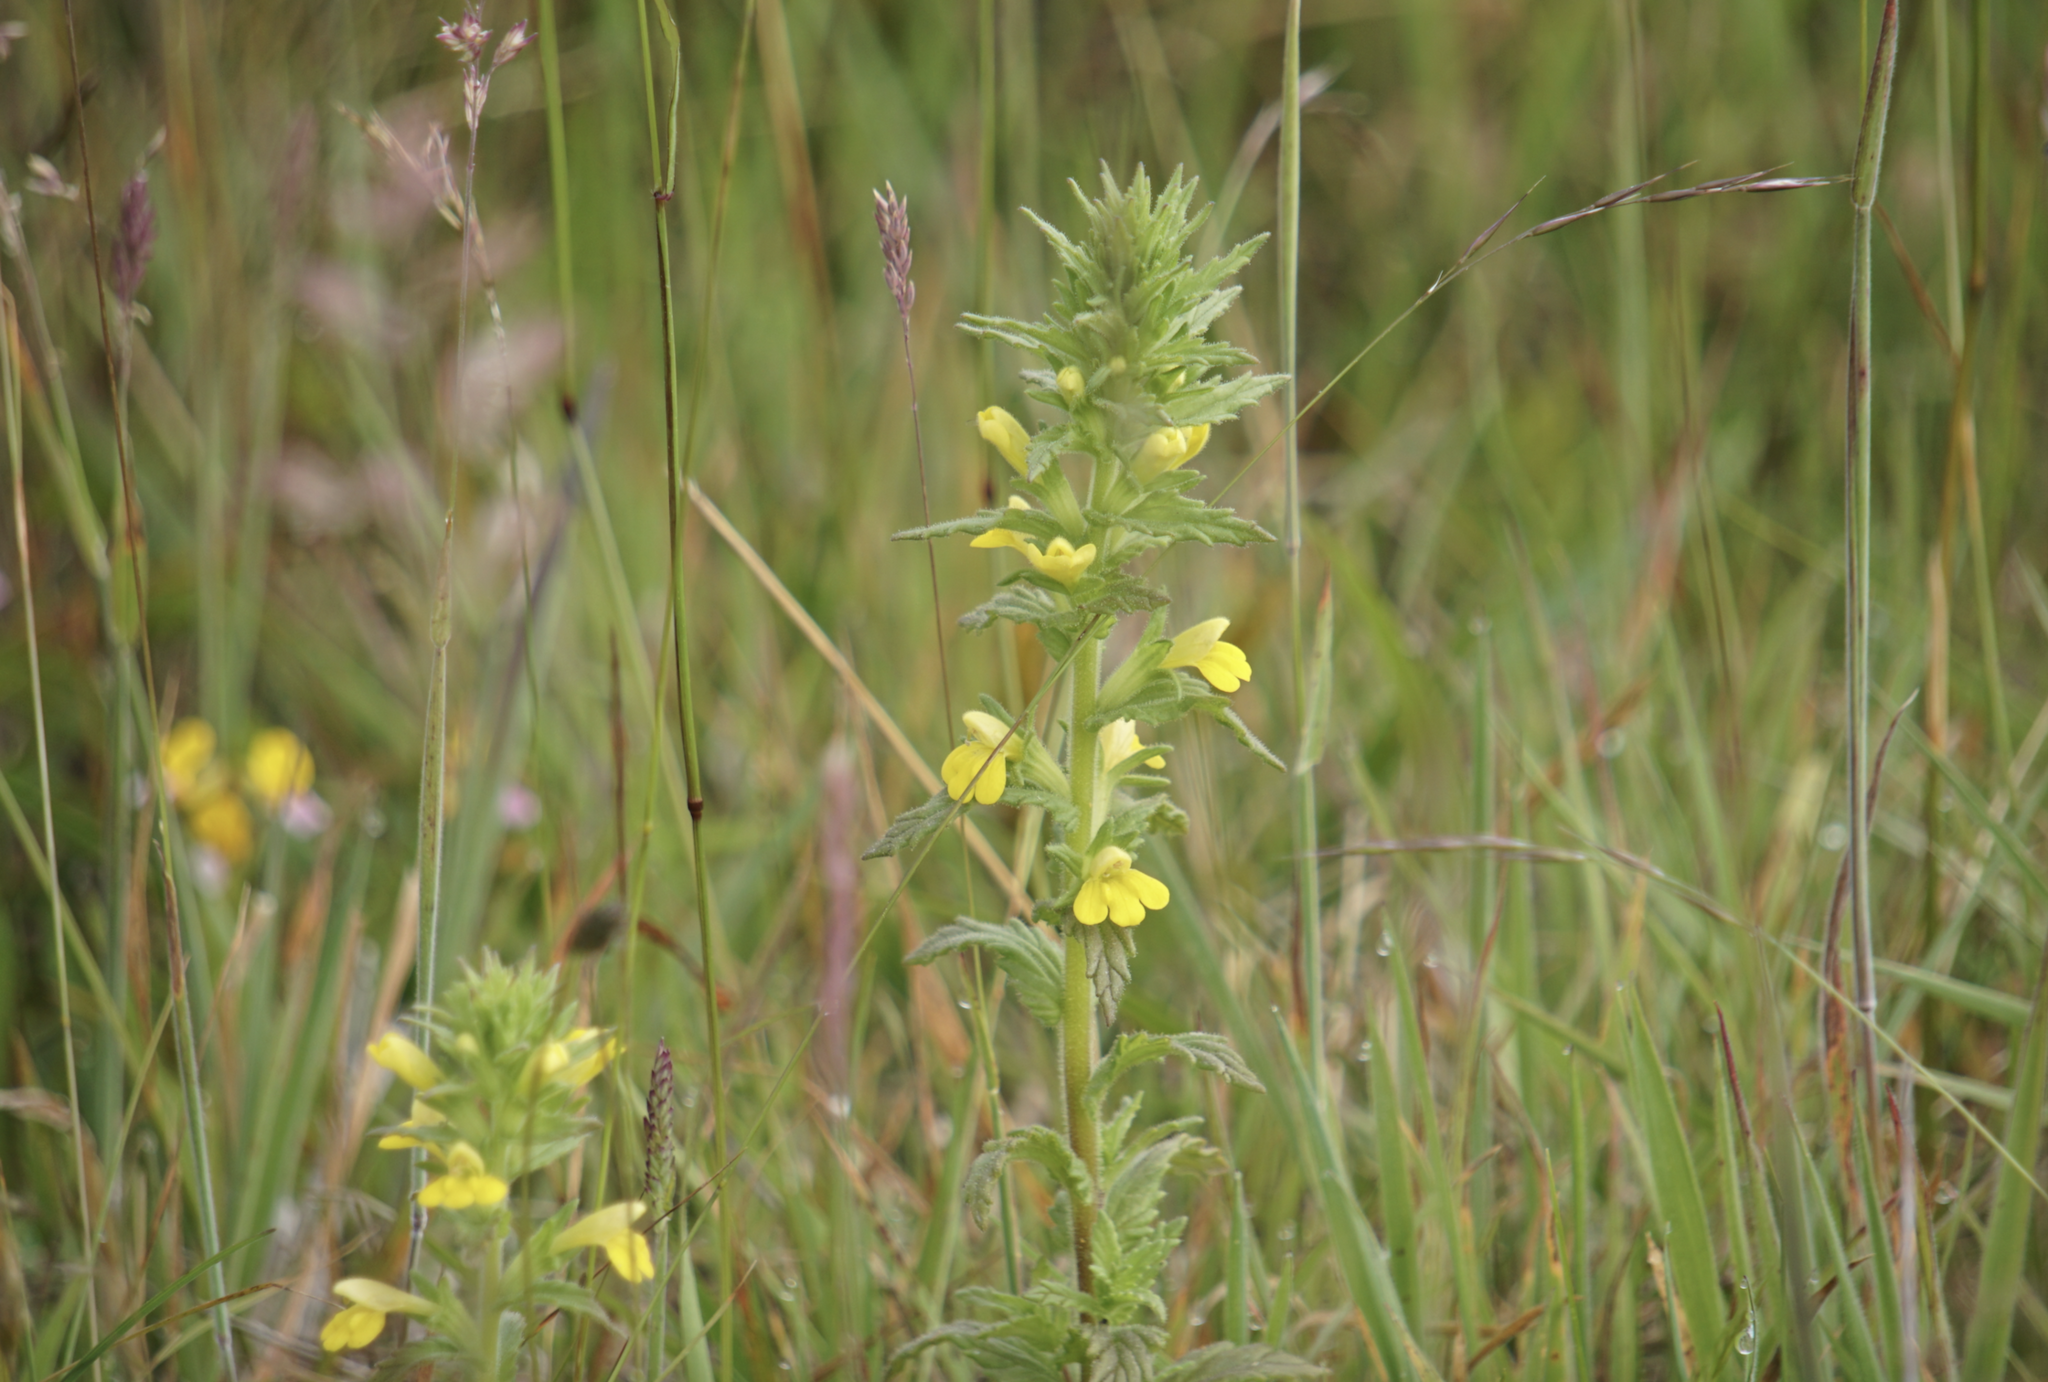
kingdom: Plantae
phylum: Tracheophyta
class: Magnoliopsida
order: Lamiales
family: Orobanchaceae
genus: Bellardia
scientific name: Bellardia viscosa
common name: Sticky parentucellia
